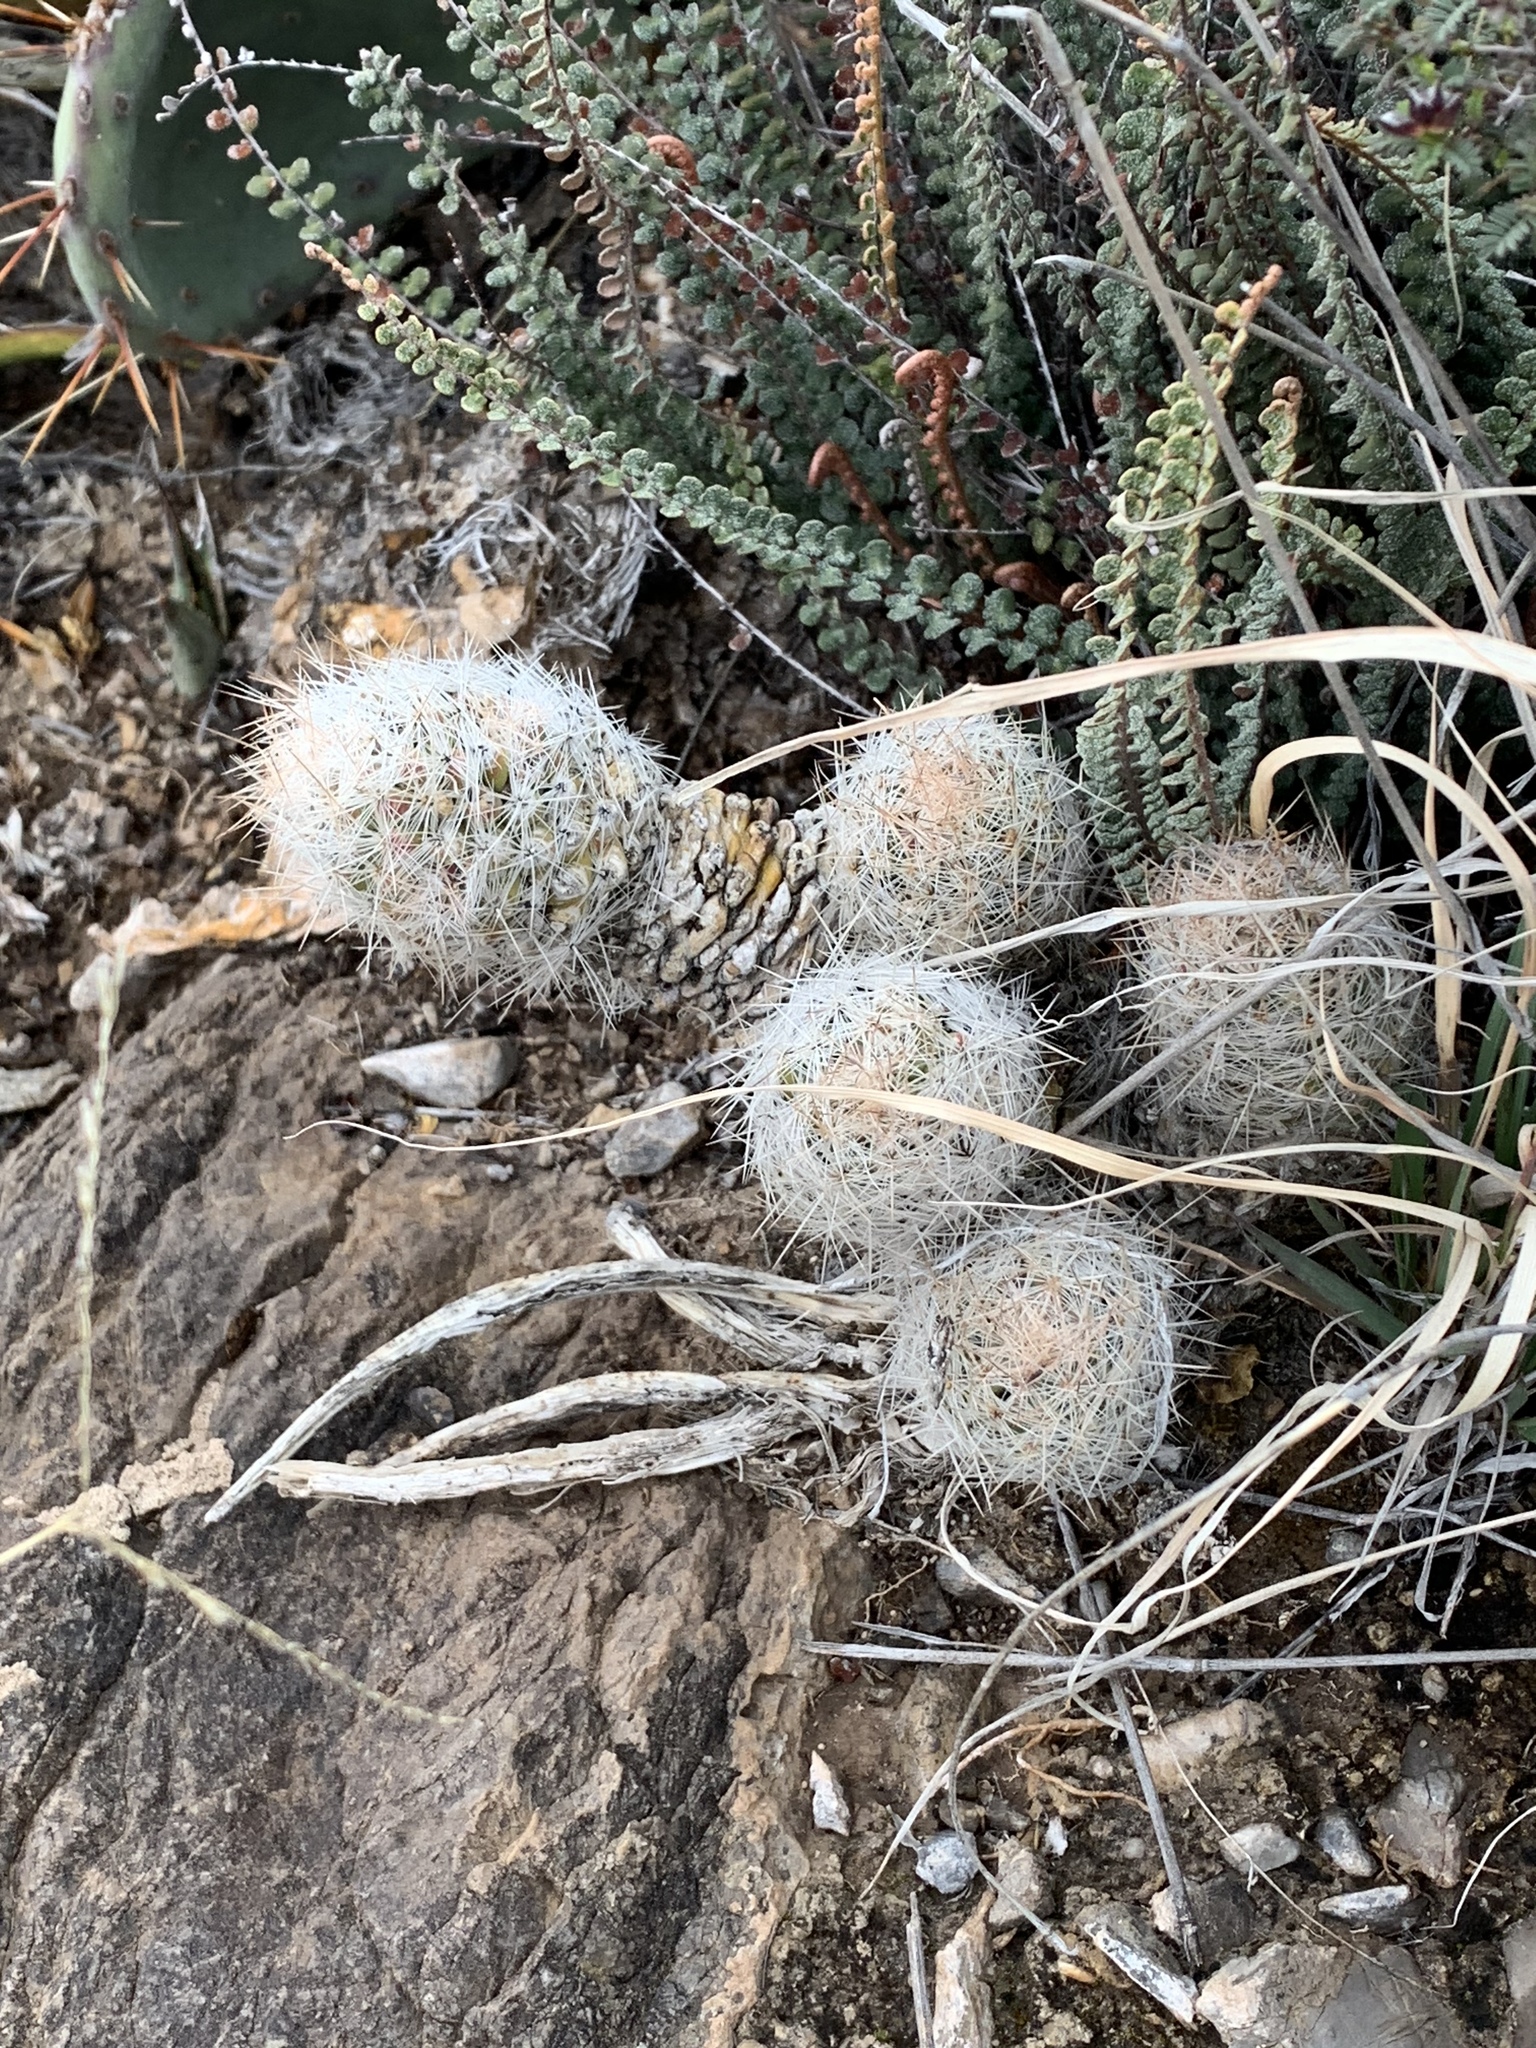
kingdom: Plantae
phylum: Tracheophyta
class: Magnoliopsida
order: Caryophyllales
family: Cactaceae
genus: Pelecyphora
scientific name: Pelecyphora tuberculosa
